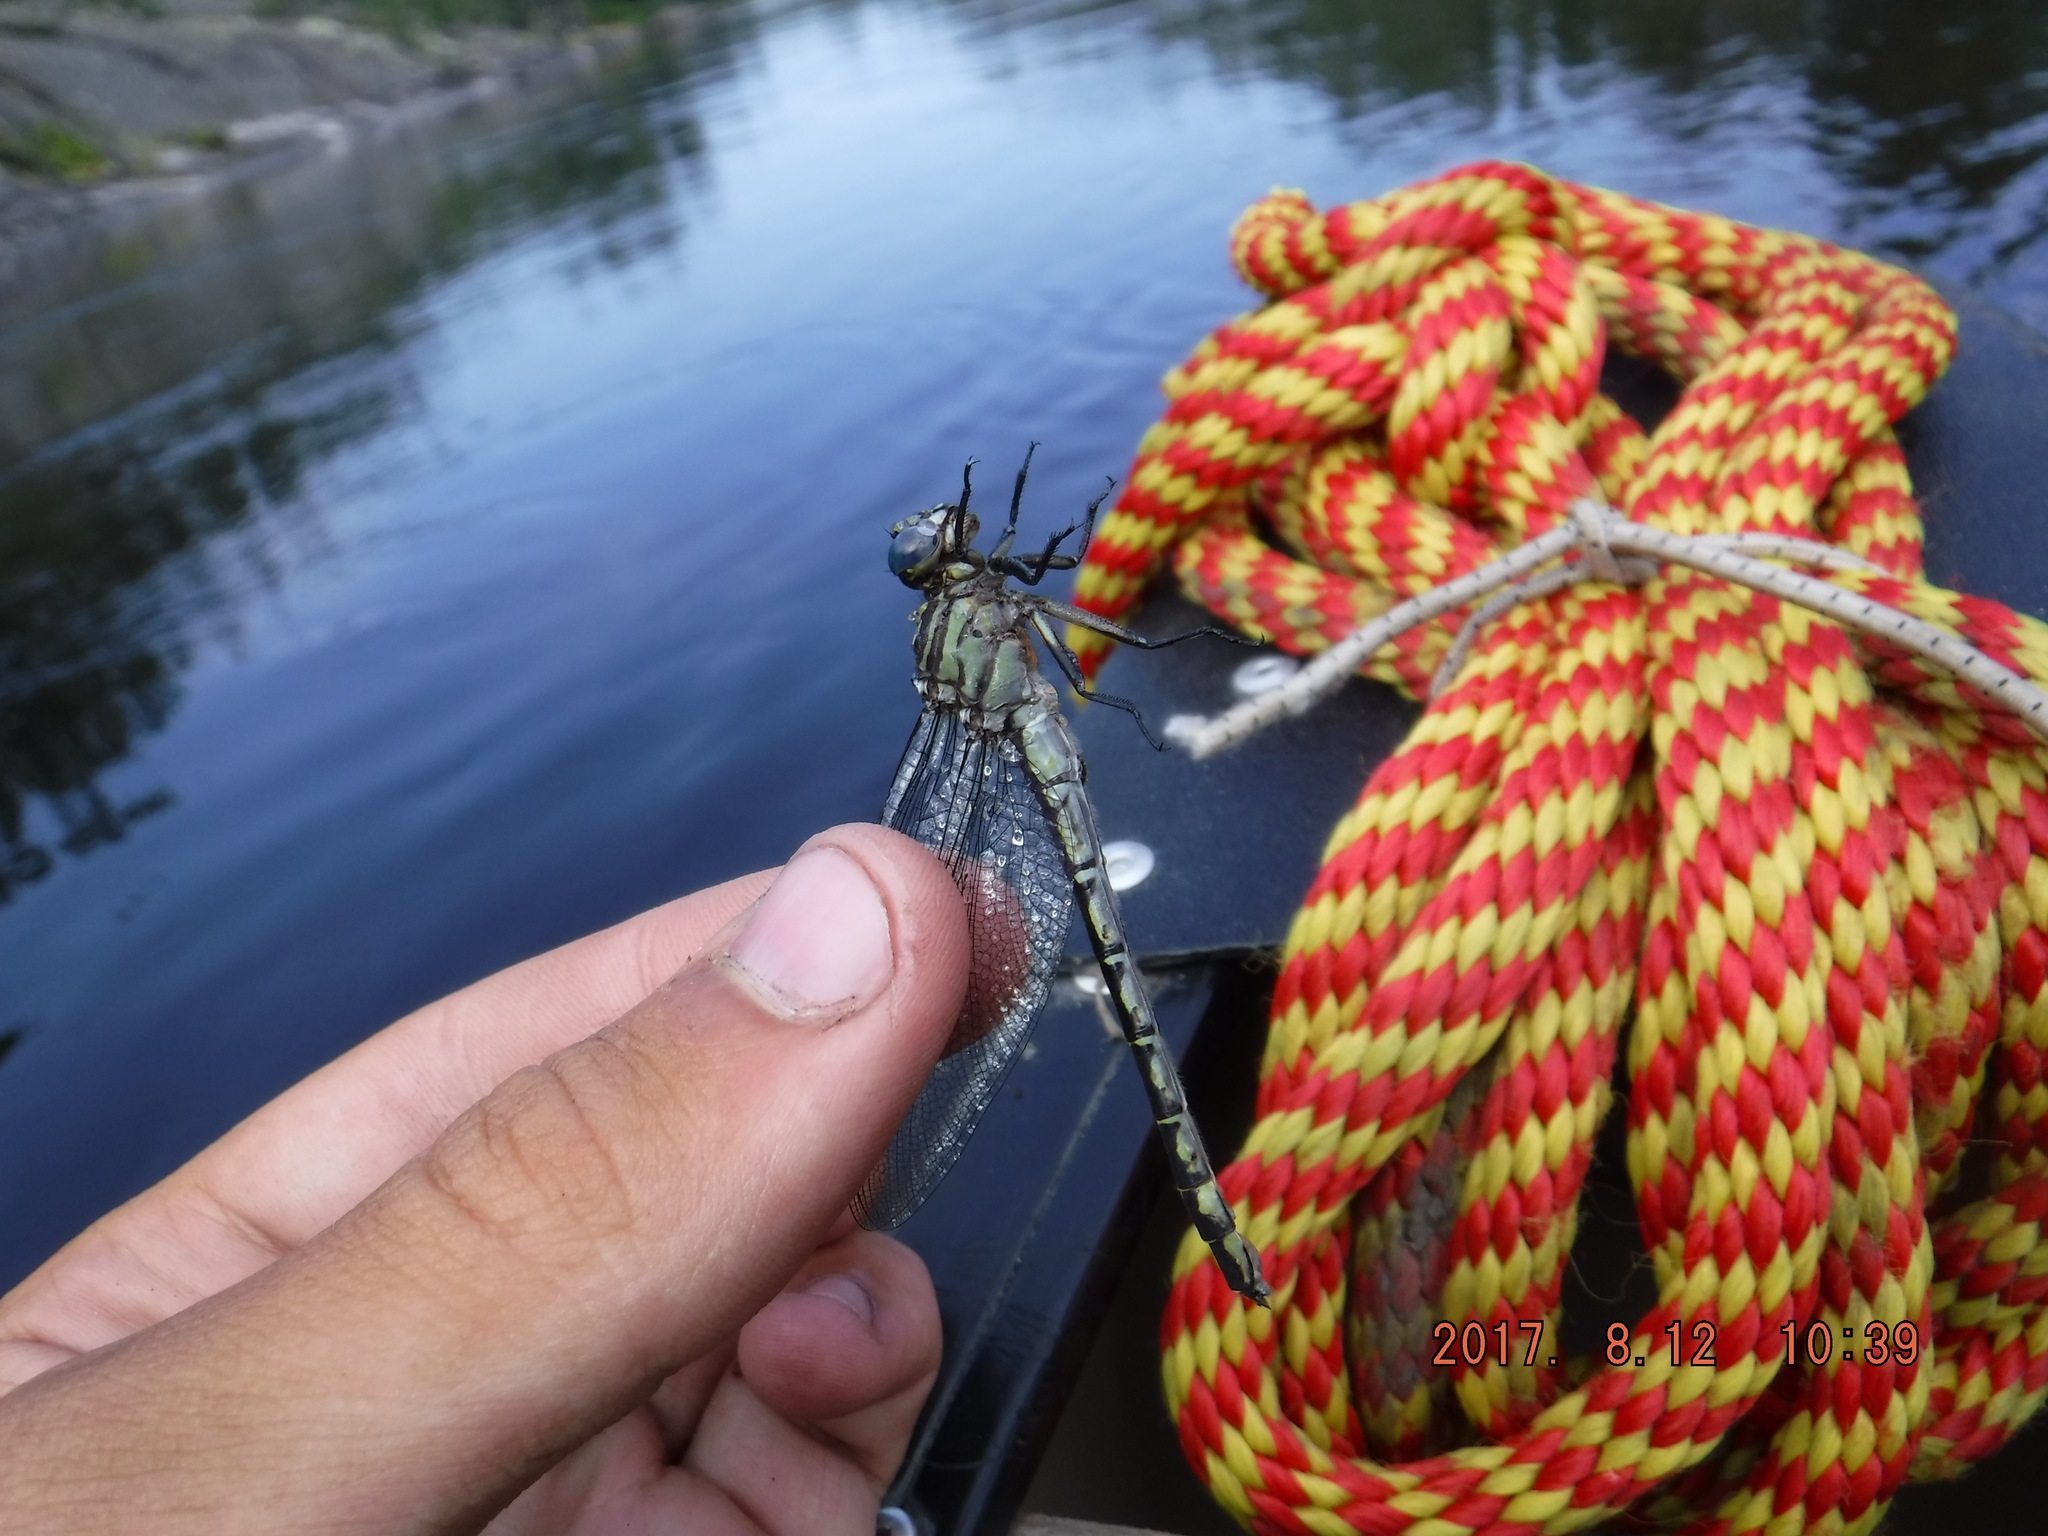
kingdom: Animalia
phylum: Arthropoda
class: Insecta
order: Odonata
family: Gomphidae
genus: Stylurus
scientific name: Stylurus notatus
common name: Elusive clubtail
